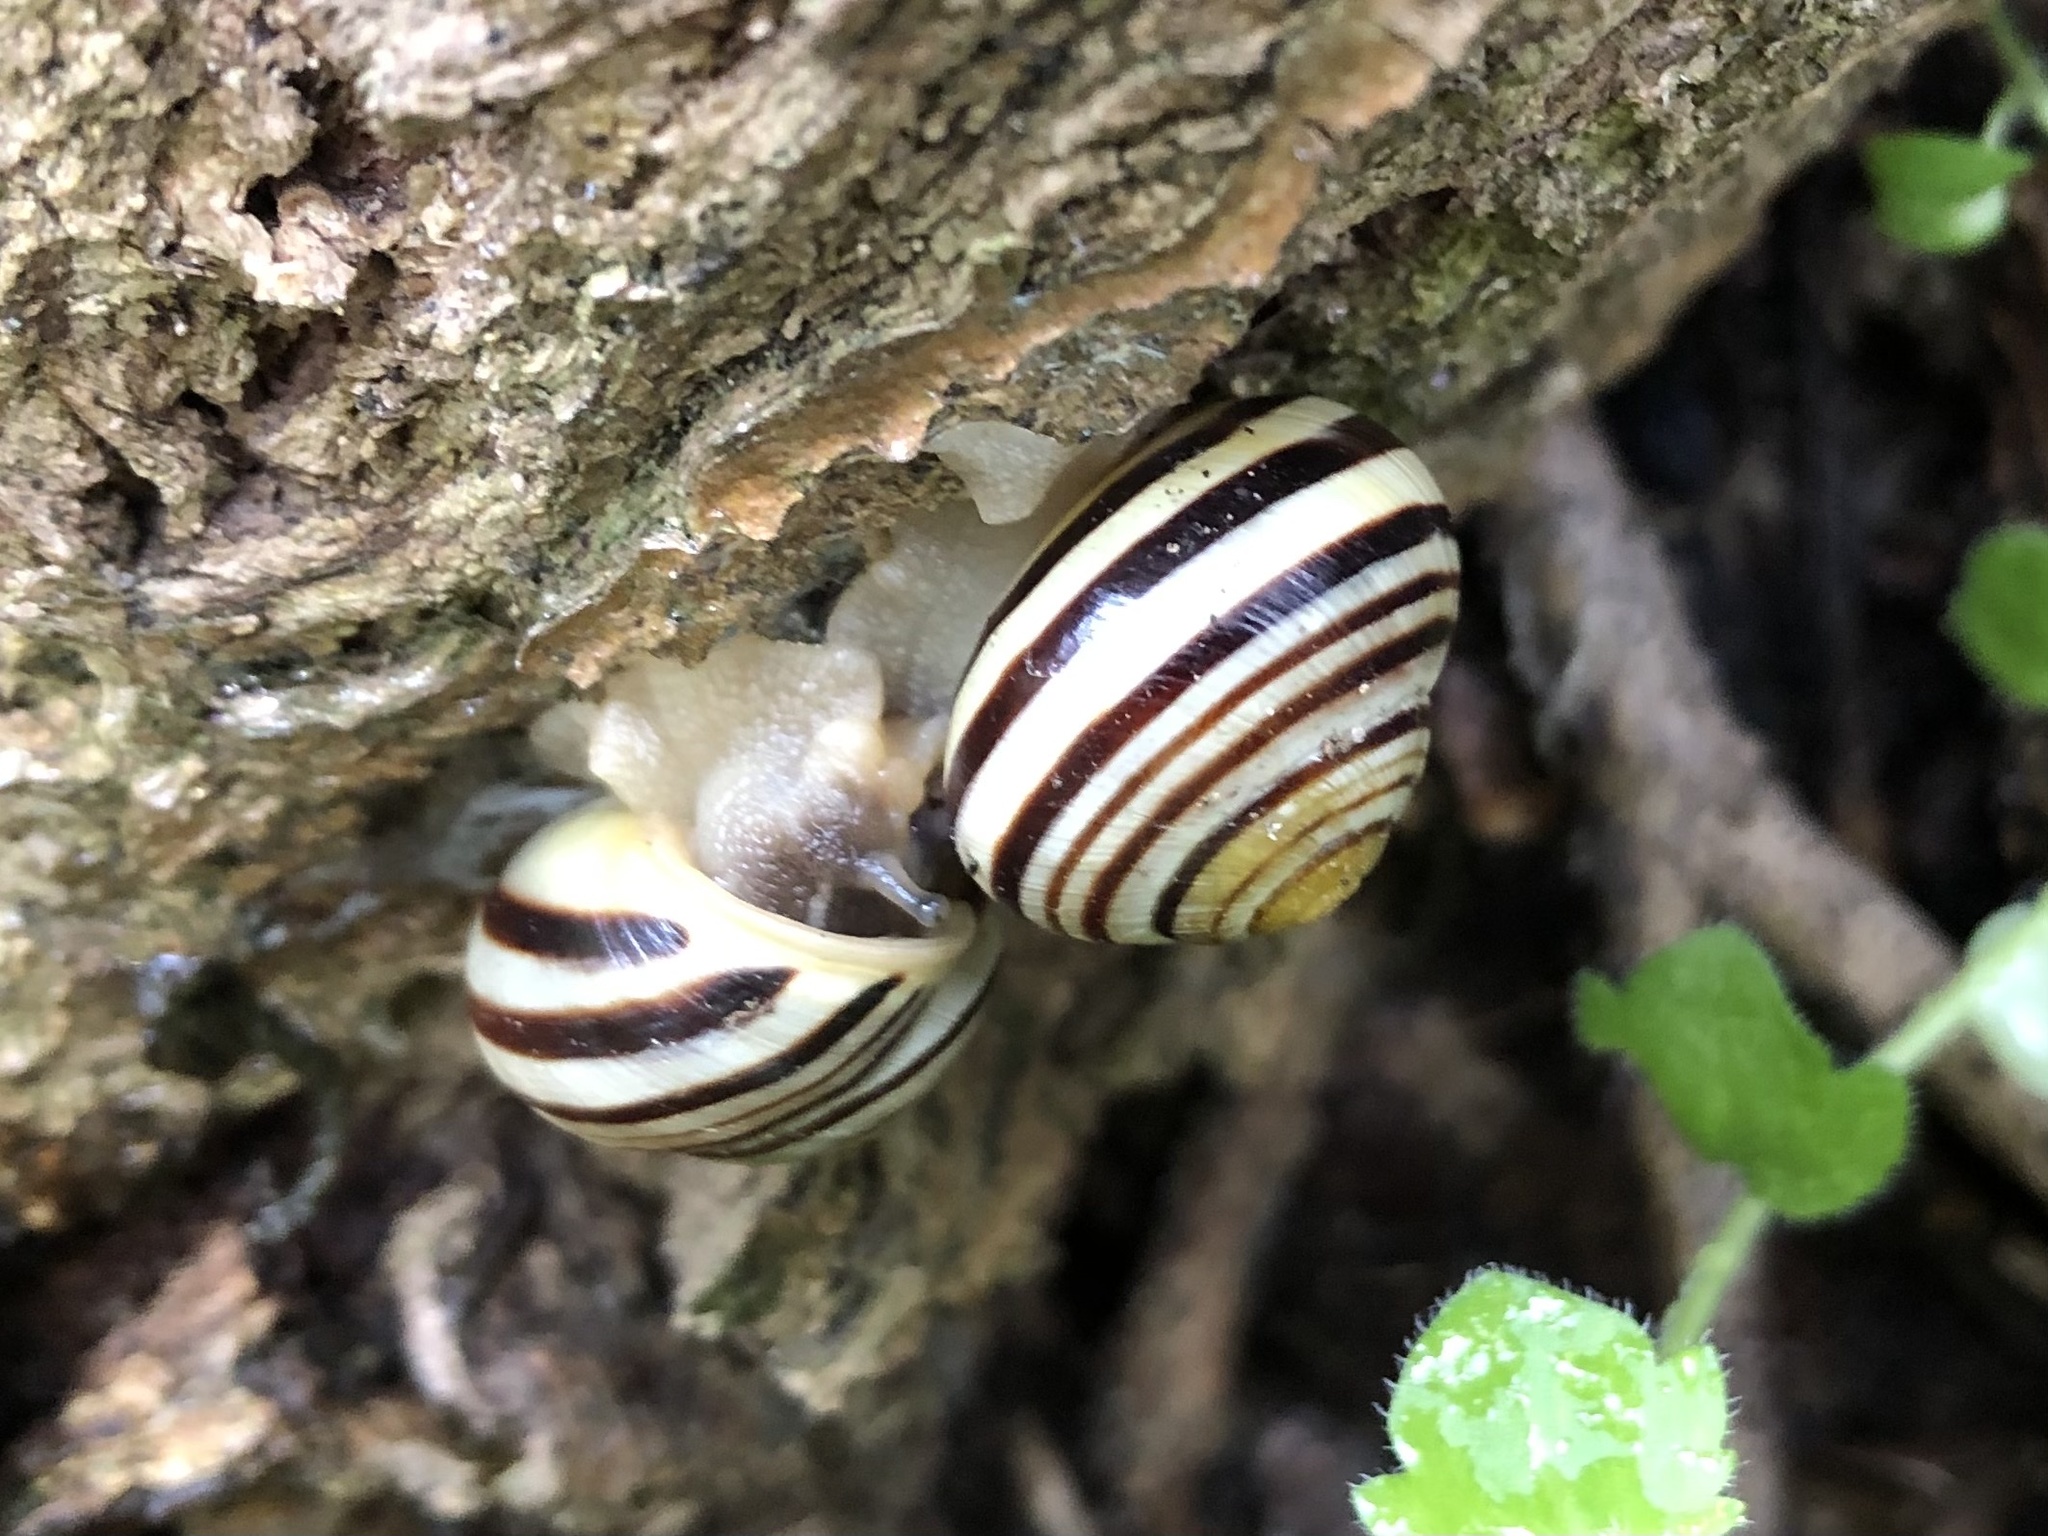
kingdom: Animalia
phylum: Mollusca
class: Gastropoda
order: Stylommatophora
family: Helicidae
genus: Cepaea
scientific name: Cepaea hortensis
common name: White-lip gardensnail
